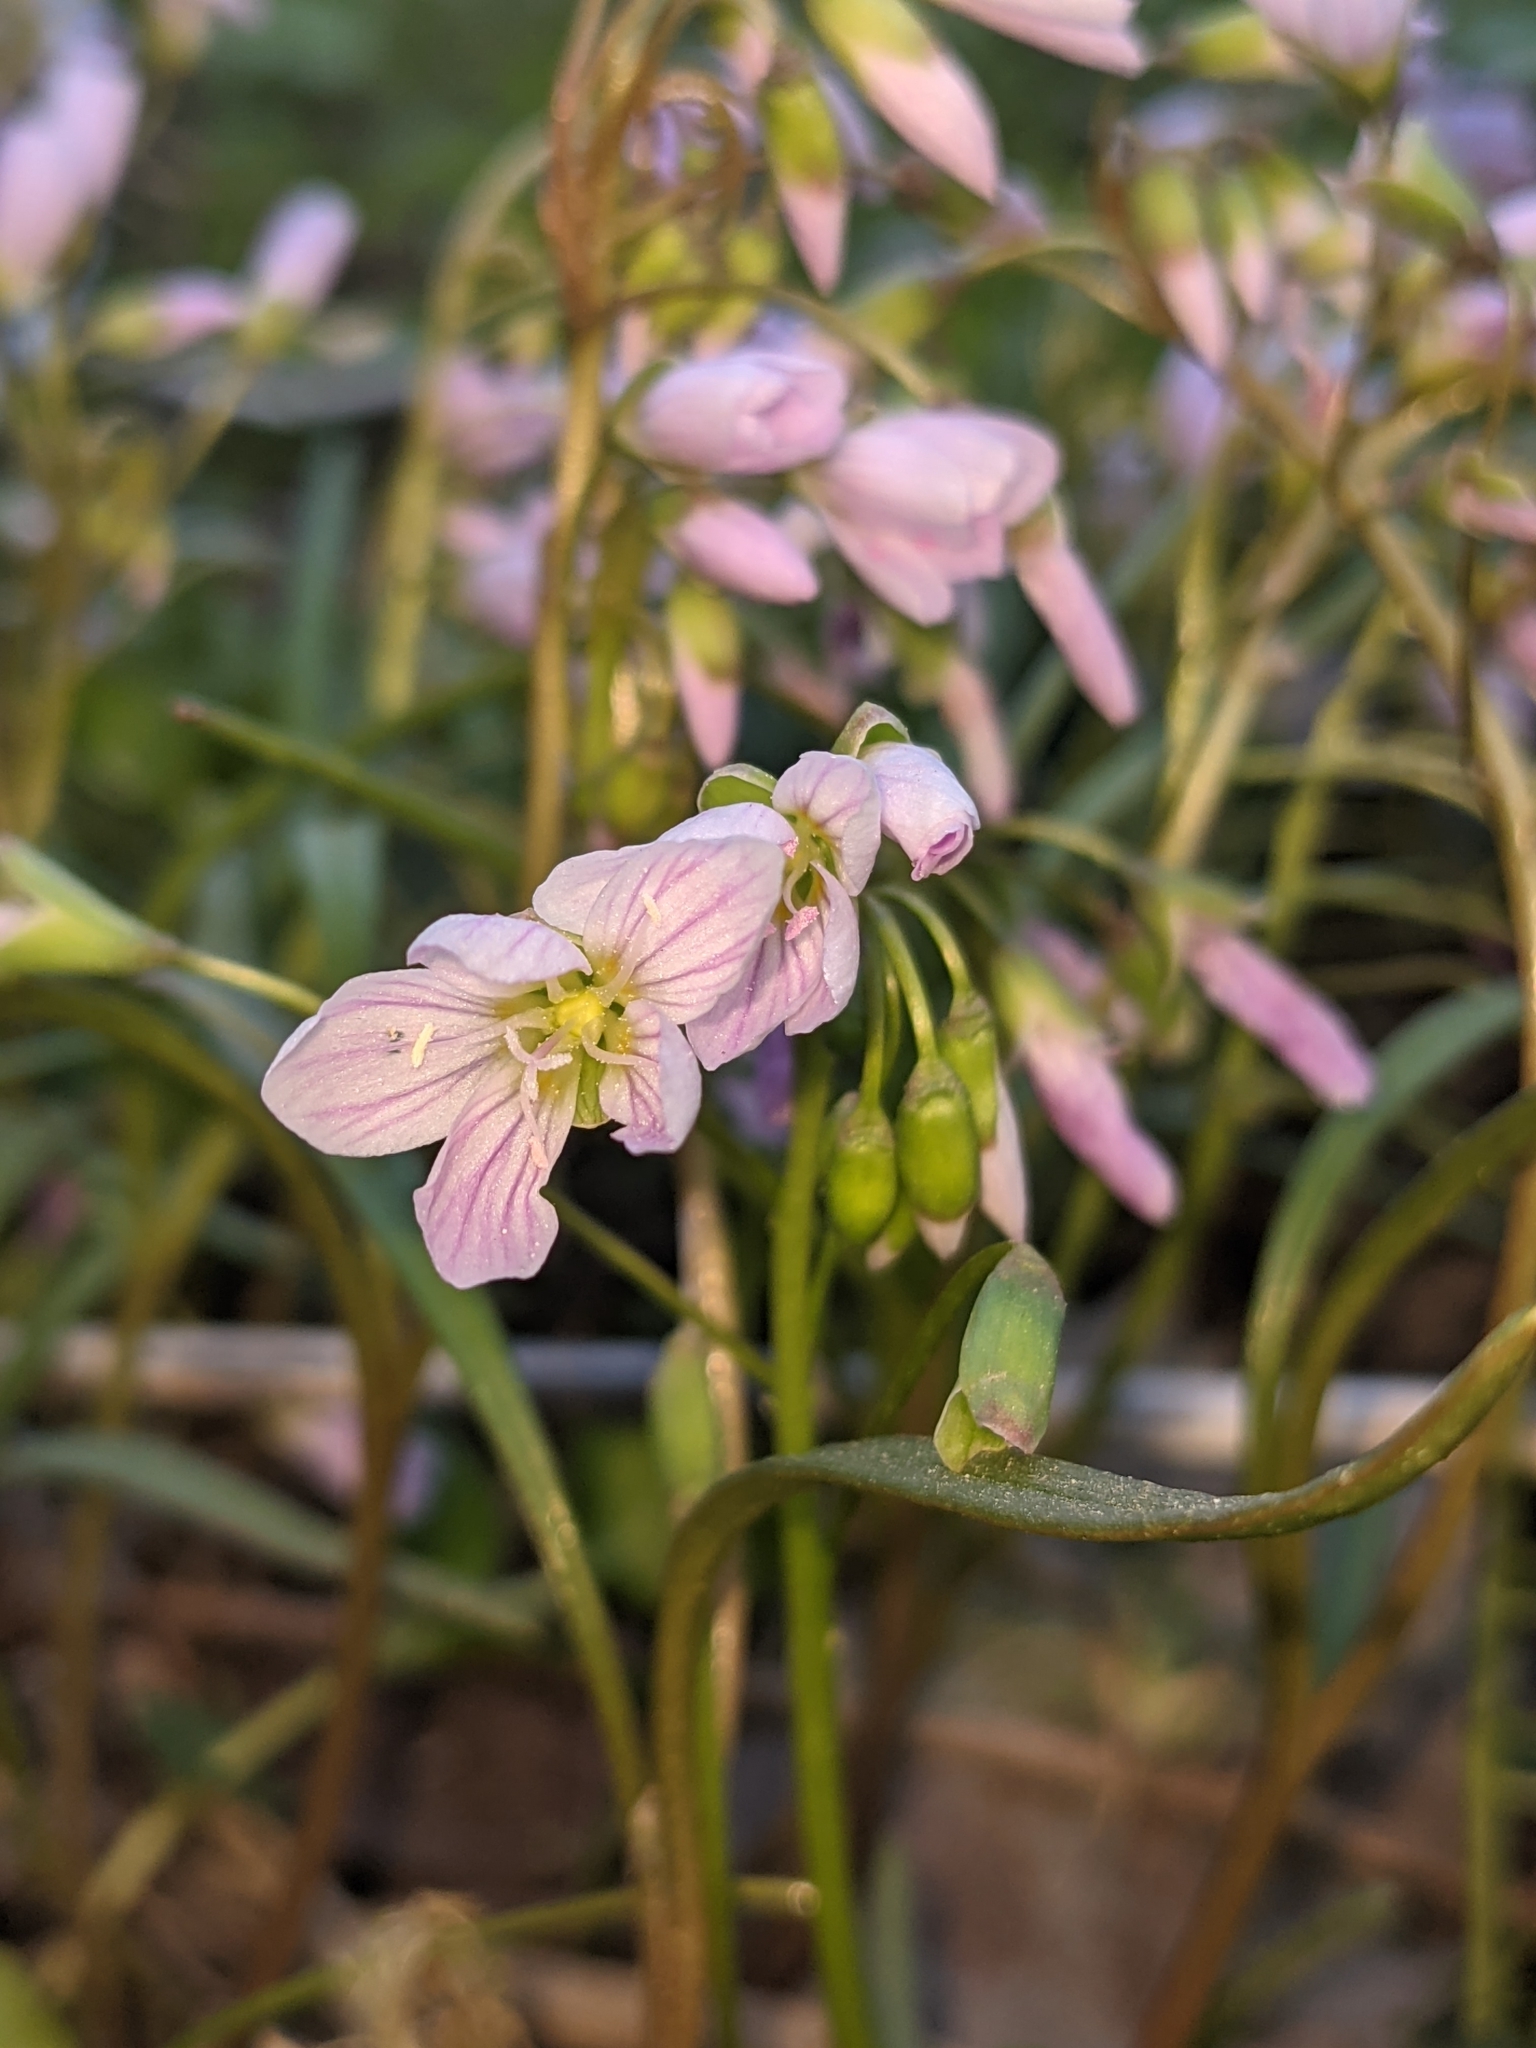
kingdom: Plantae
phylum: Tracheophyta
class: Magnoliopsida
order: Caryophyllales
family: Montiaceae
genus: Claytonia
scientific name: Claytonia virginica
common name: Virginia springbeauty
